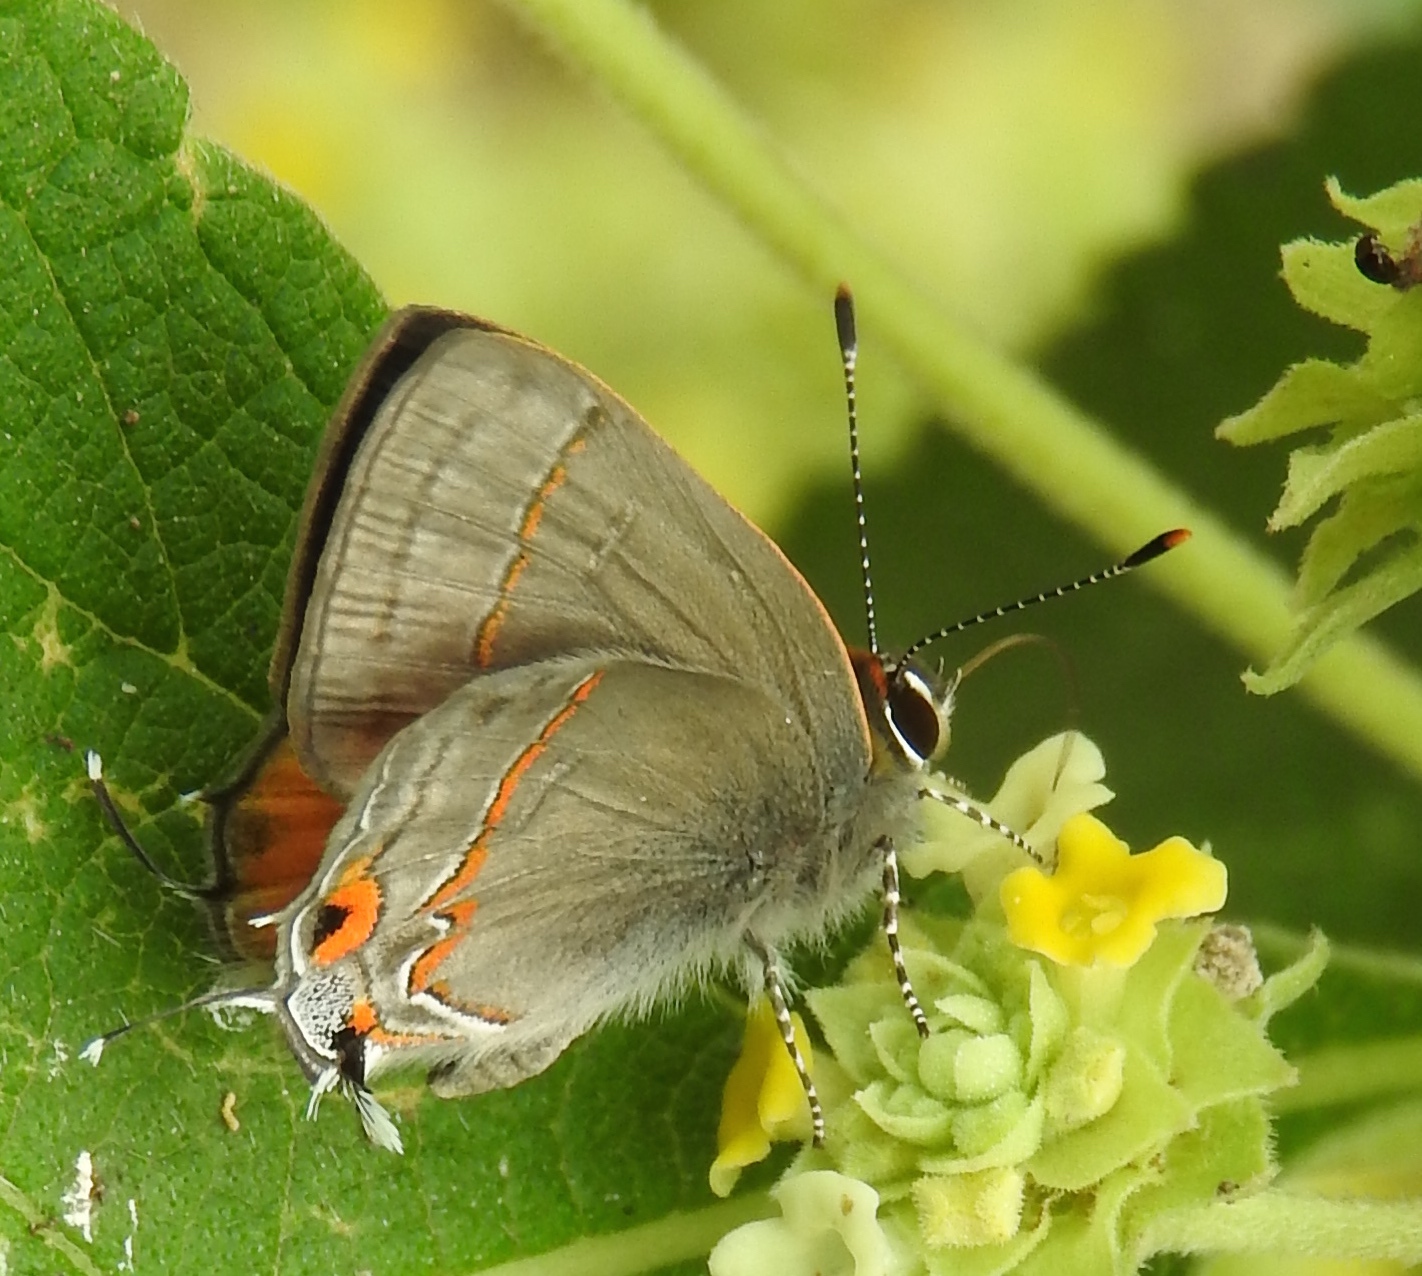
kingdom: Animalia
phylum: Arthropoda
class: Insecta
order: Lepidoptera
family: Lycaenidae
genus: Electrostrymon
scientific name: Electrostrymon endymion
